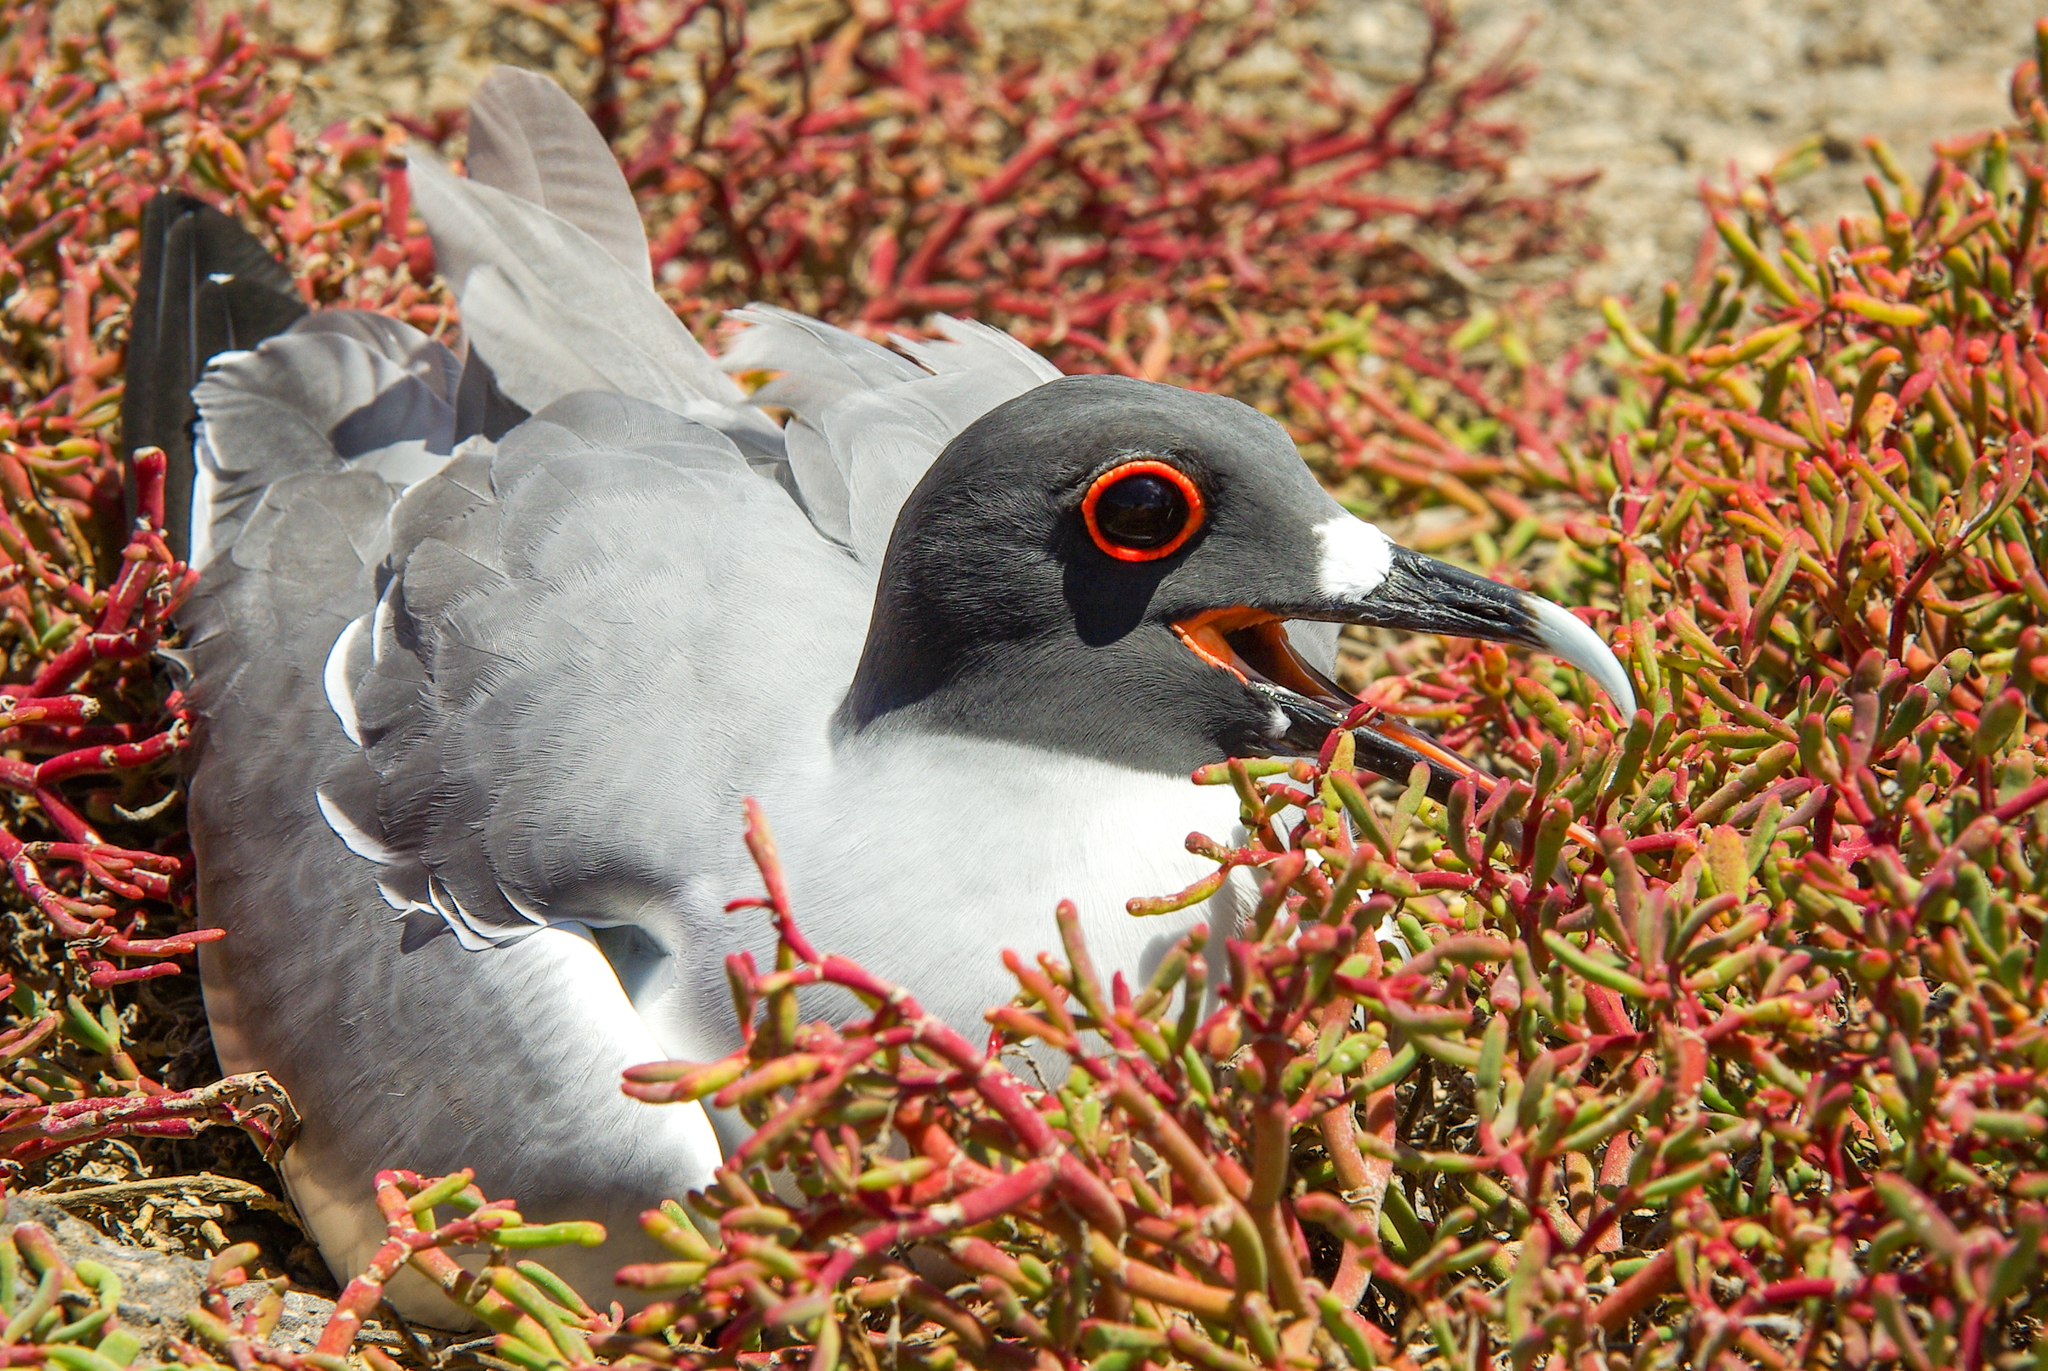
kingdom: Animalia
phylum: Chordata
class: Aves
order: Charadriiformes
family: Laridae
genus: Creagrus
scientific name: Creagrus furcatus
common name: Swallow-tailed gull
